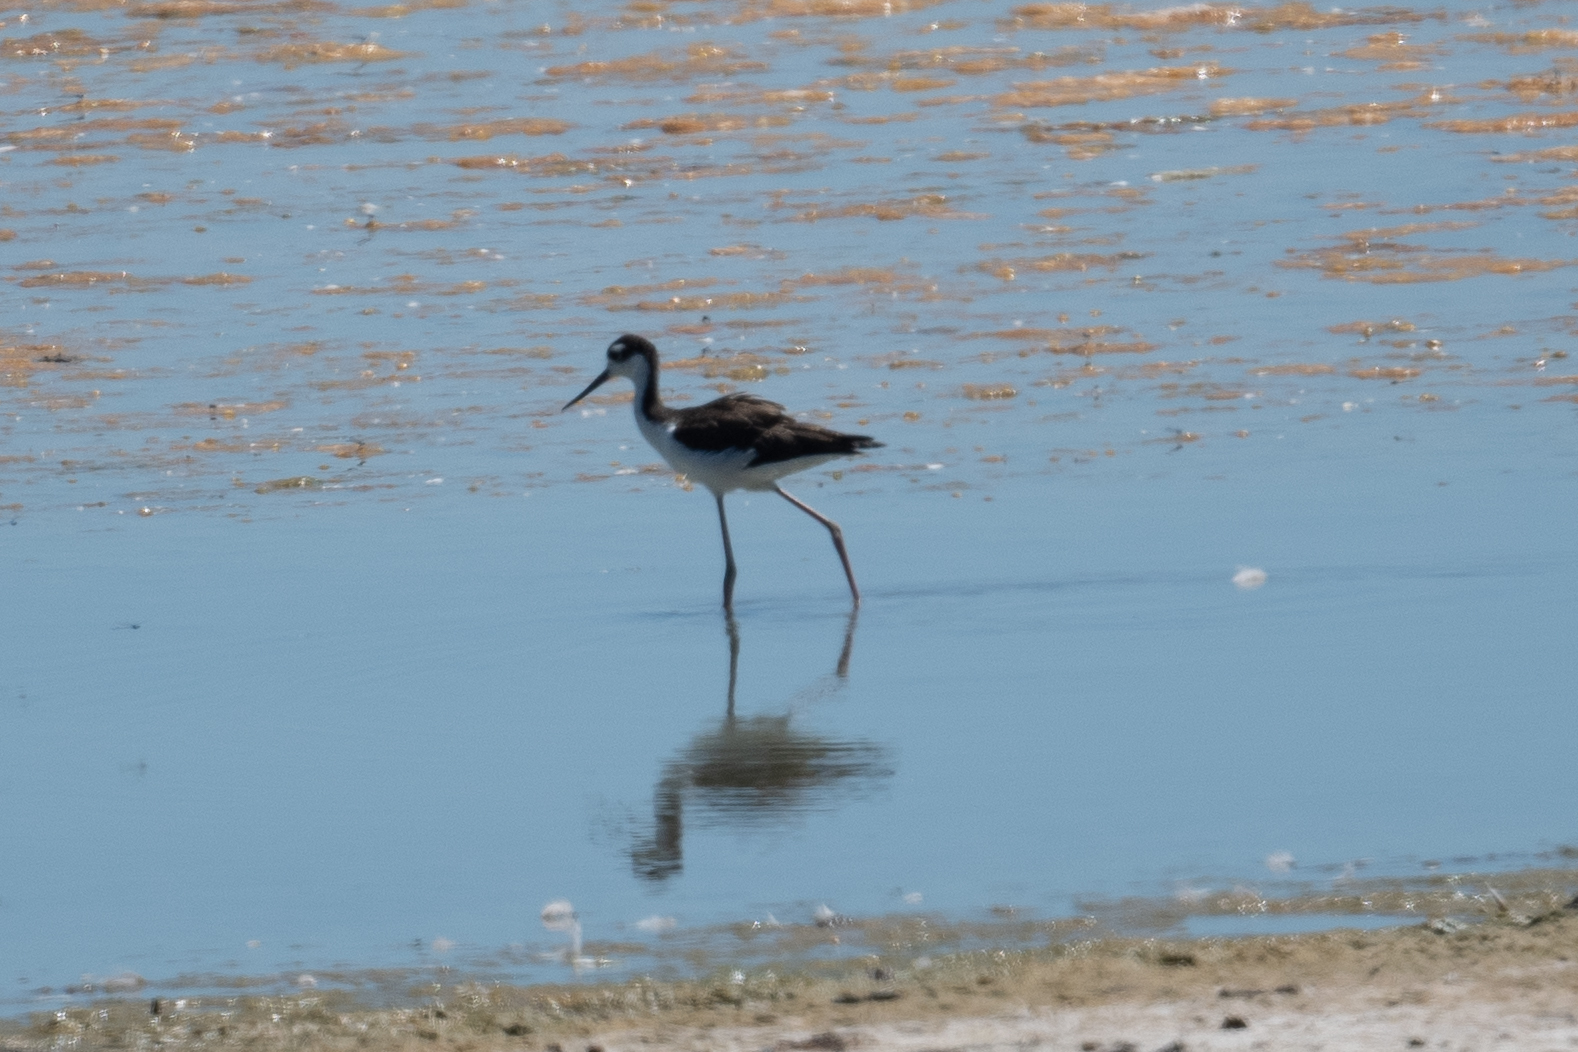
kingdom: Animalia
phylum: Chordata
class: Aves
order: Charadriiformes
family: Recurvirostridae
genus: Himantopus
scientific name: Himantopus mexicanus
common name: Black-necked stilt
